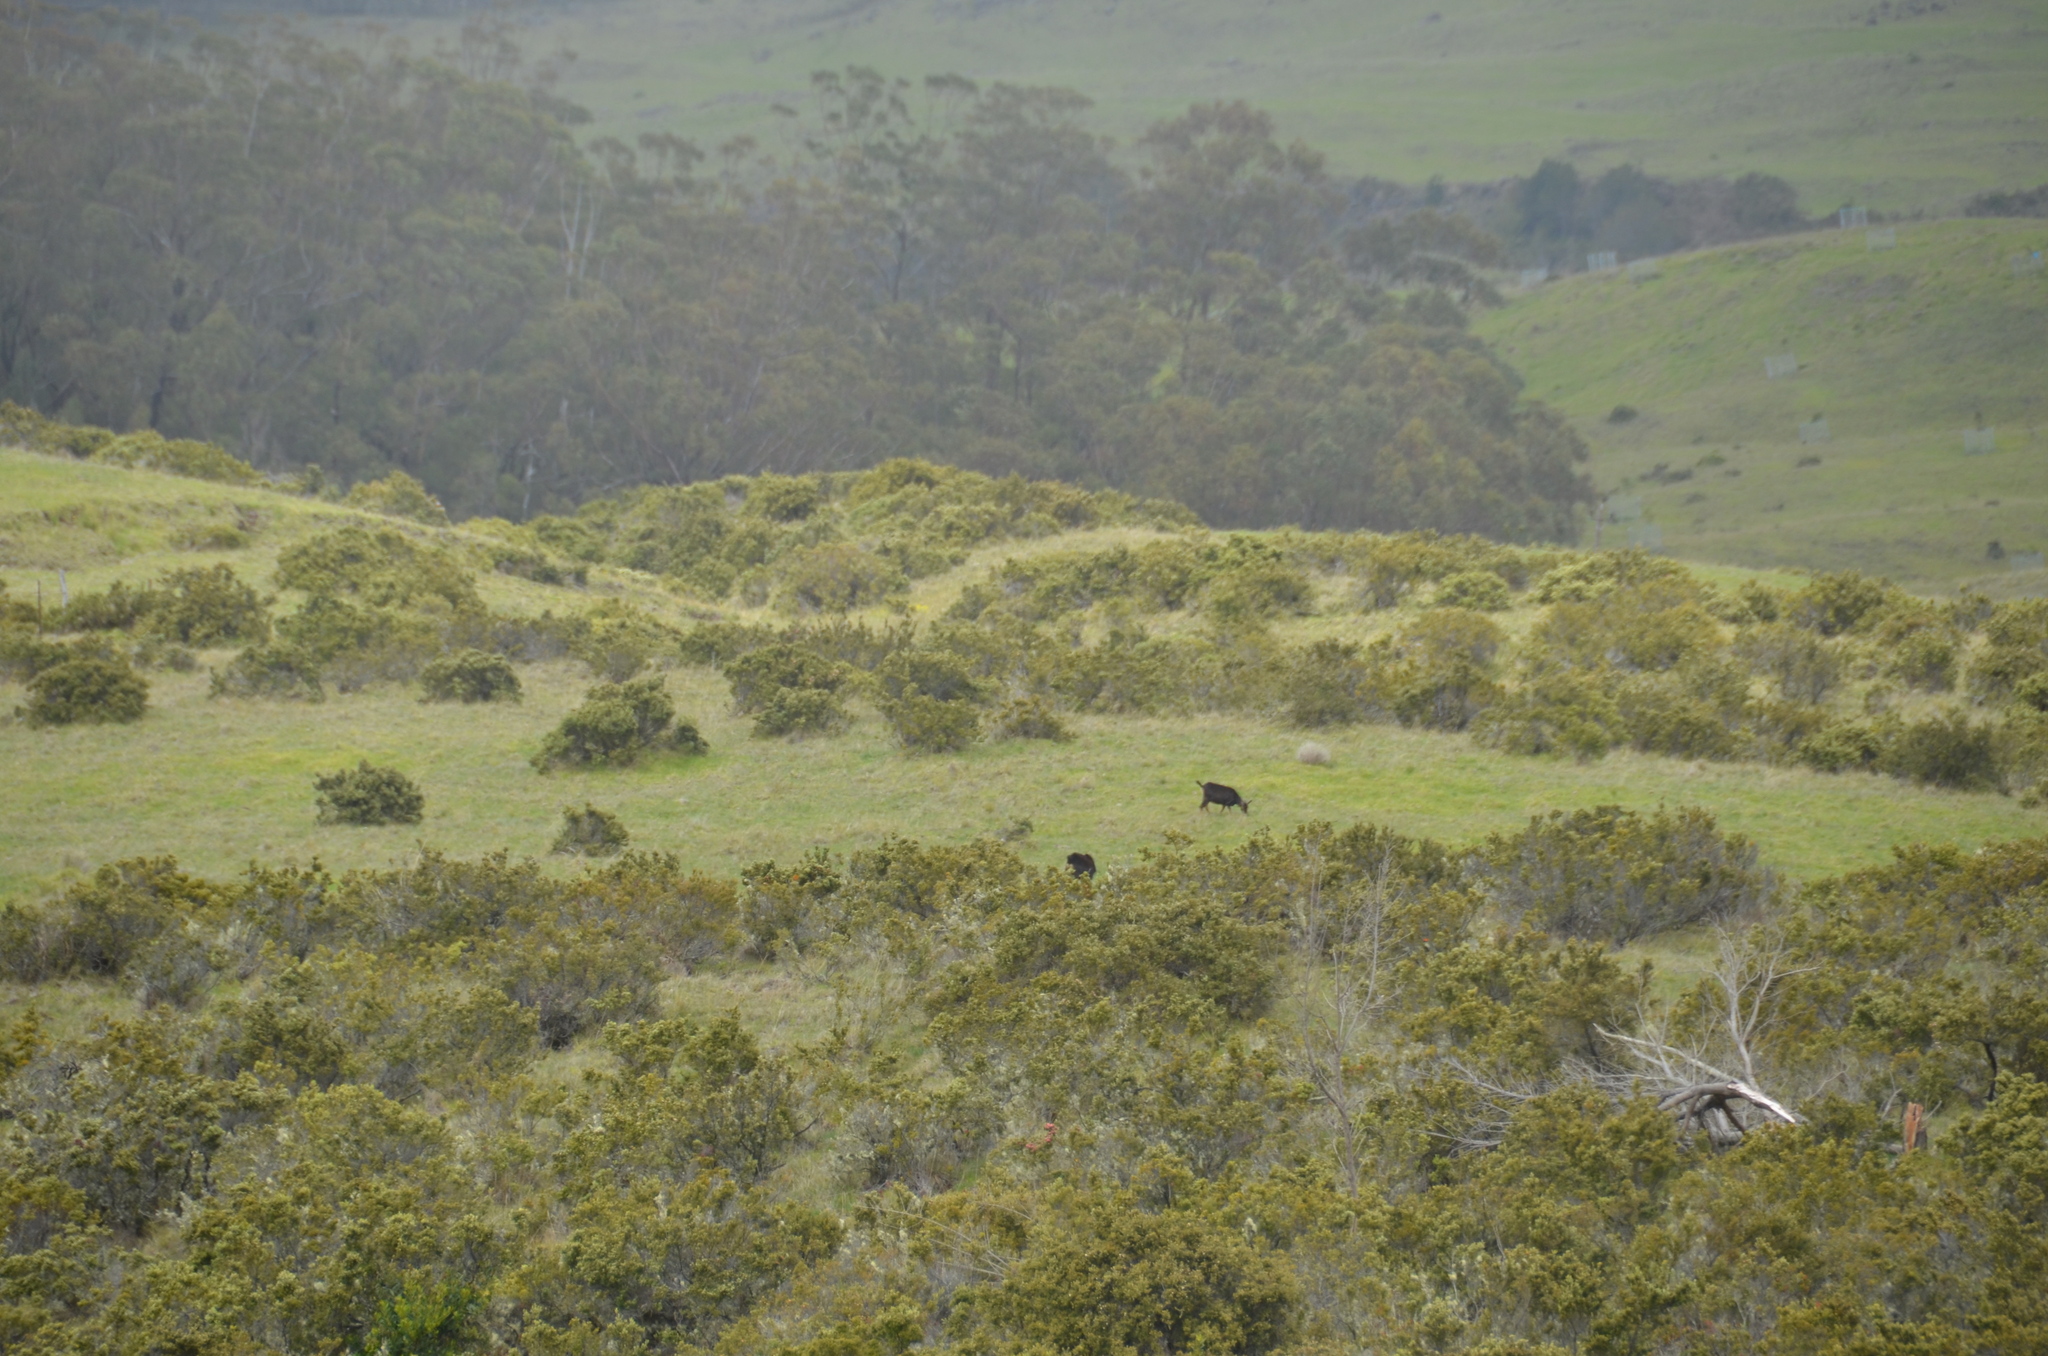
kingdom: Animalia
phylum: Chordata
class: Mammalia
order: Artiodactyla
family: Bovidae
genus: Capra
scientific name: Capra hircus
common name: Domestic goat
